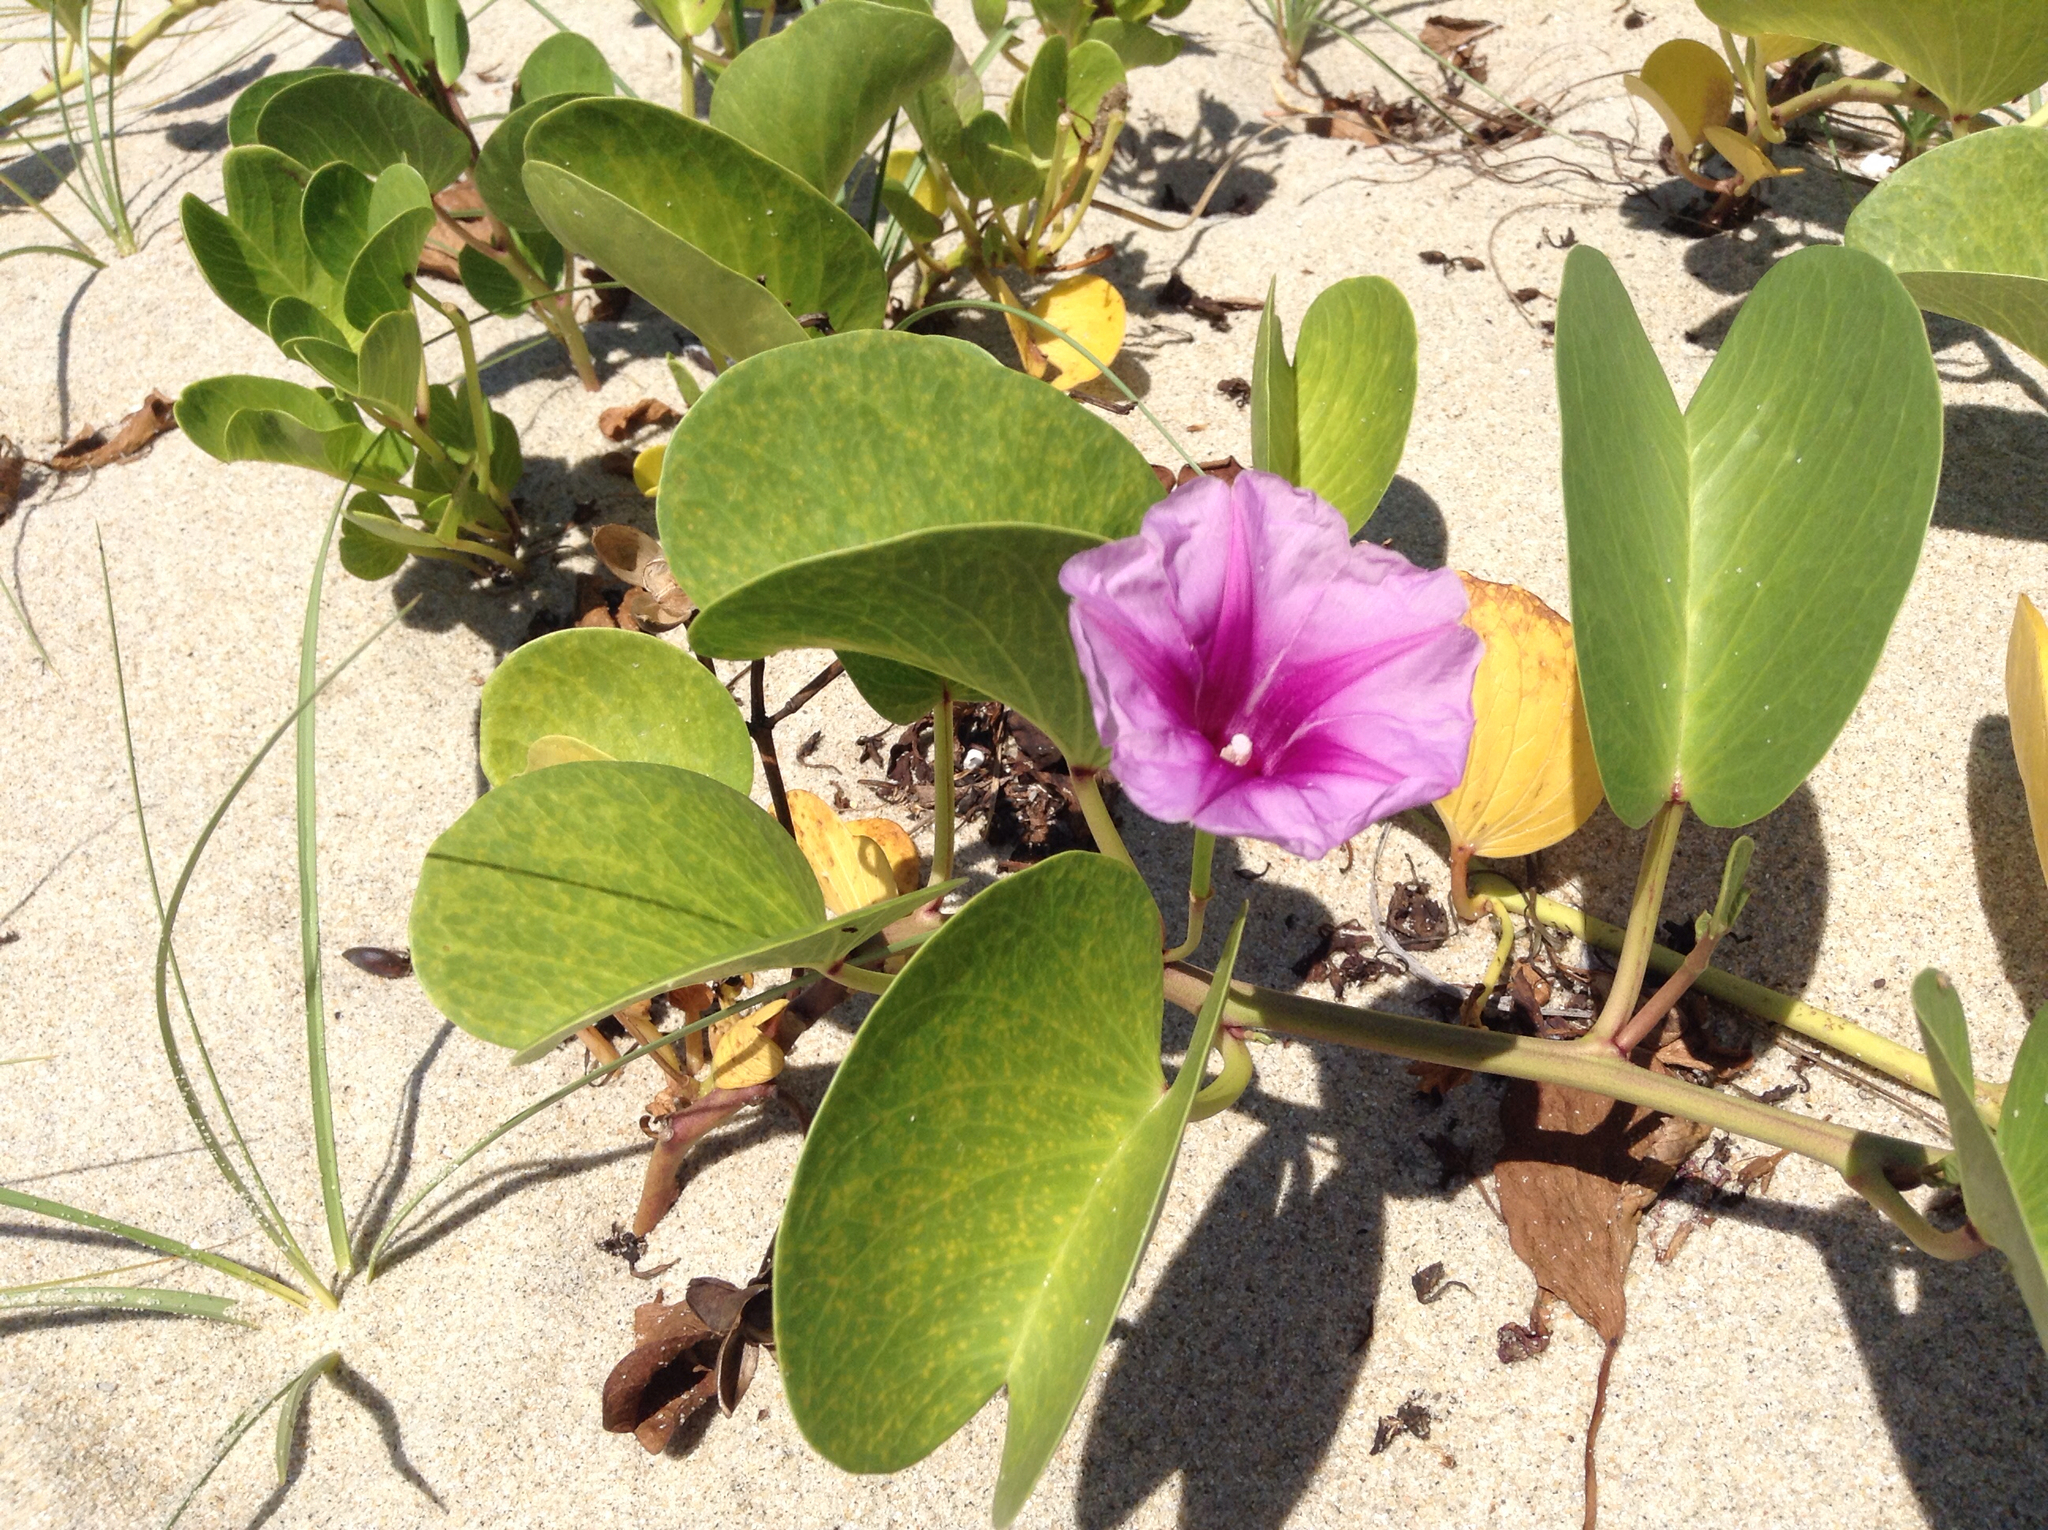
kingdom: Plantae
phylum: Tracheophyta
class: Magnoliopsida
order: Solanales
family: Convolvulaceae
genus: Ipomoea
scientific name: Ipomoea pes-caprae
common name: Beach morning glory
